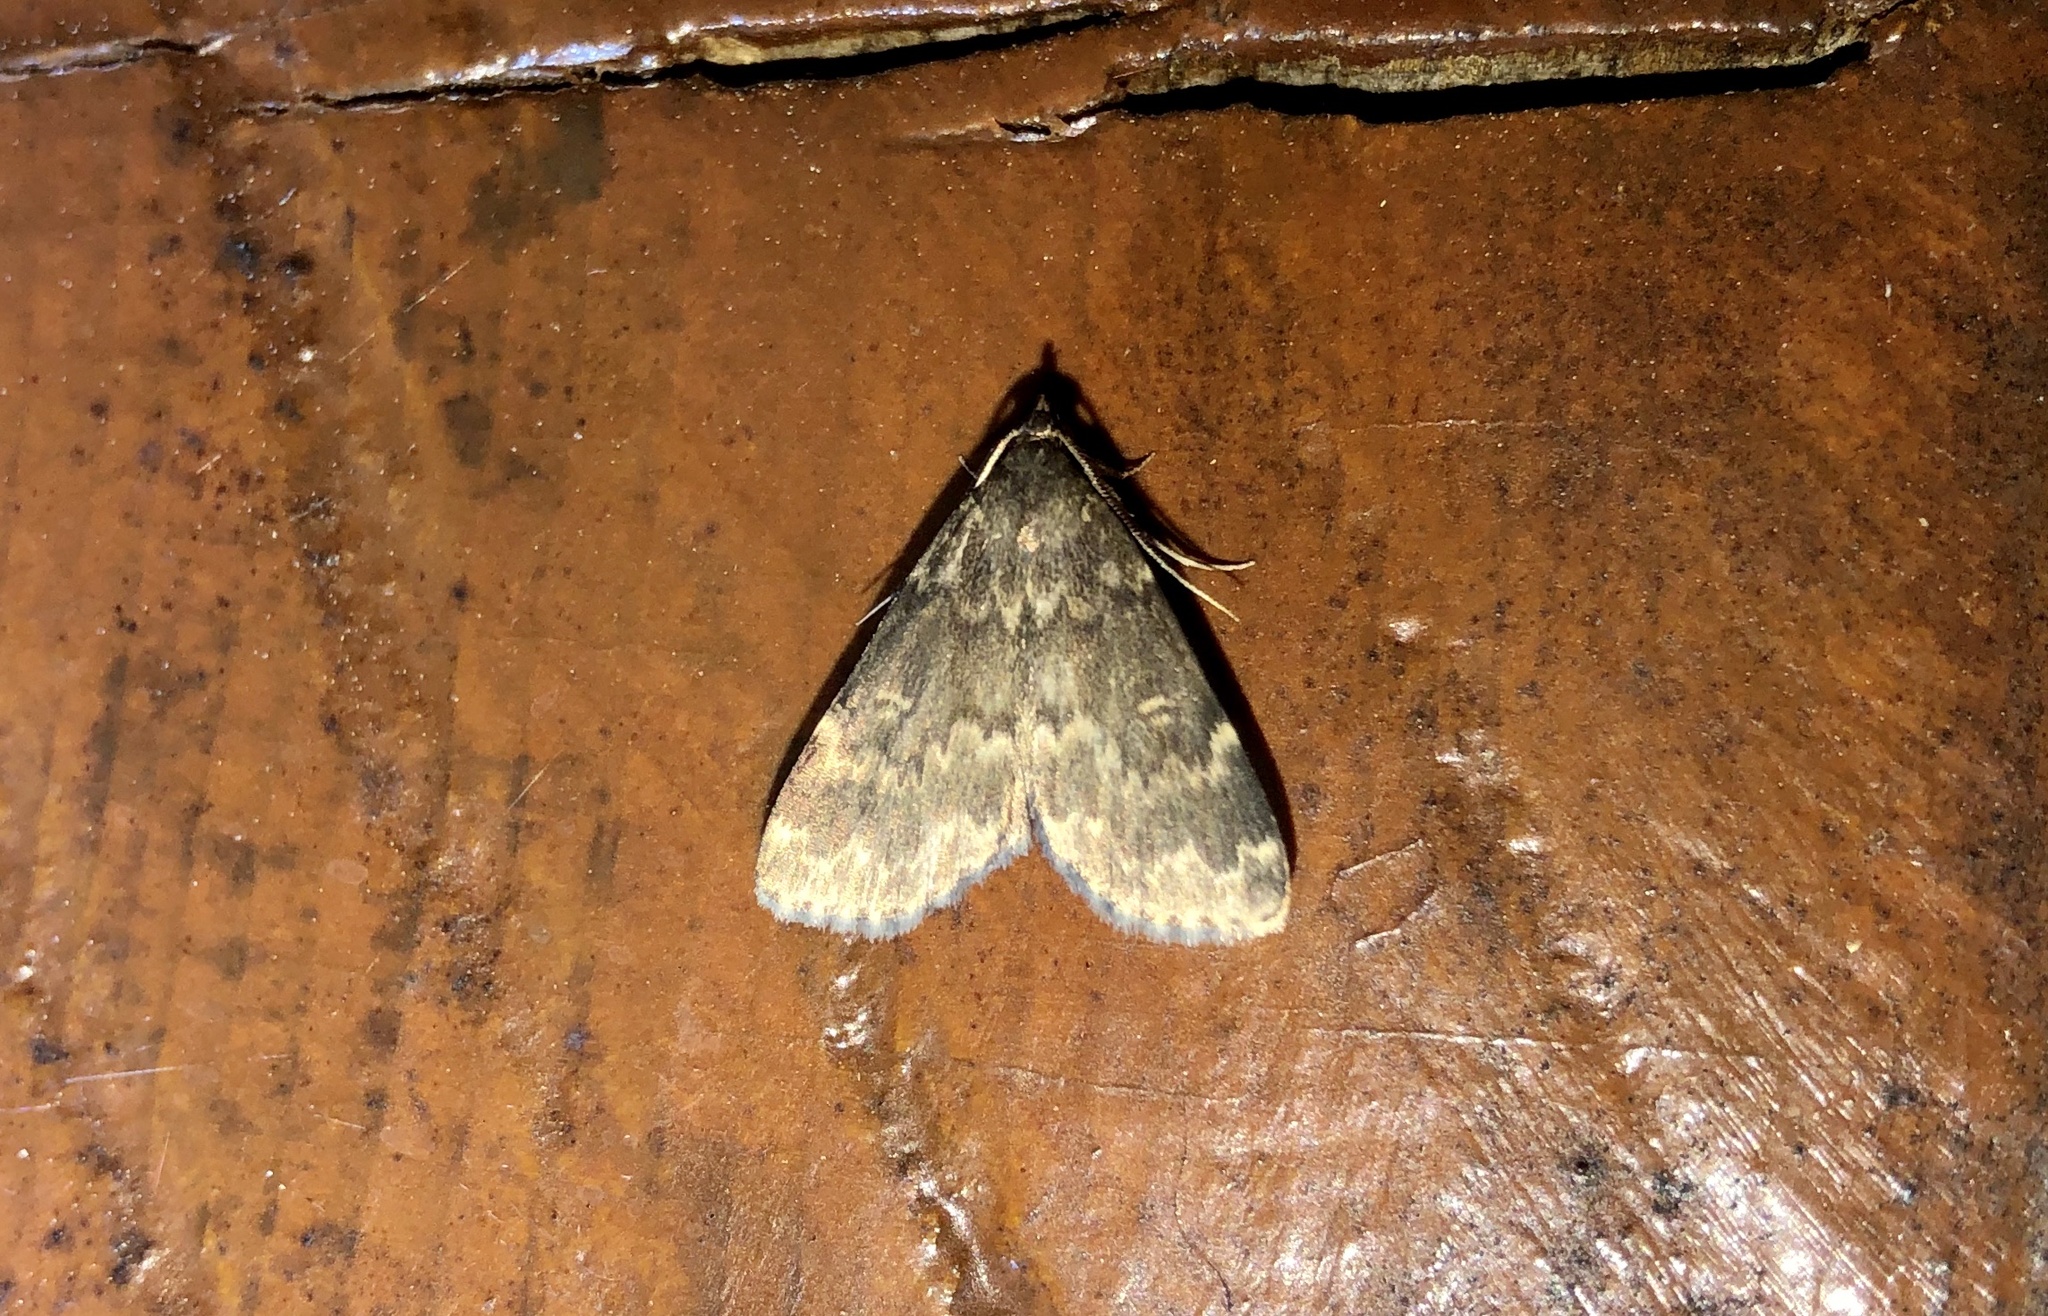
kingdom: Animalia
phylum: Arthropoda
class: Insecta
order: Lepidoptera
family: Erebidae
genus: Idia
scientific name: Idia lubricalis
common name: Twin-striped tabby
